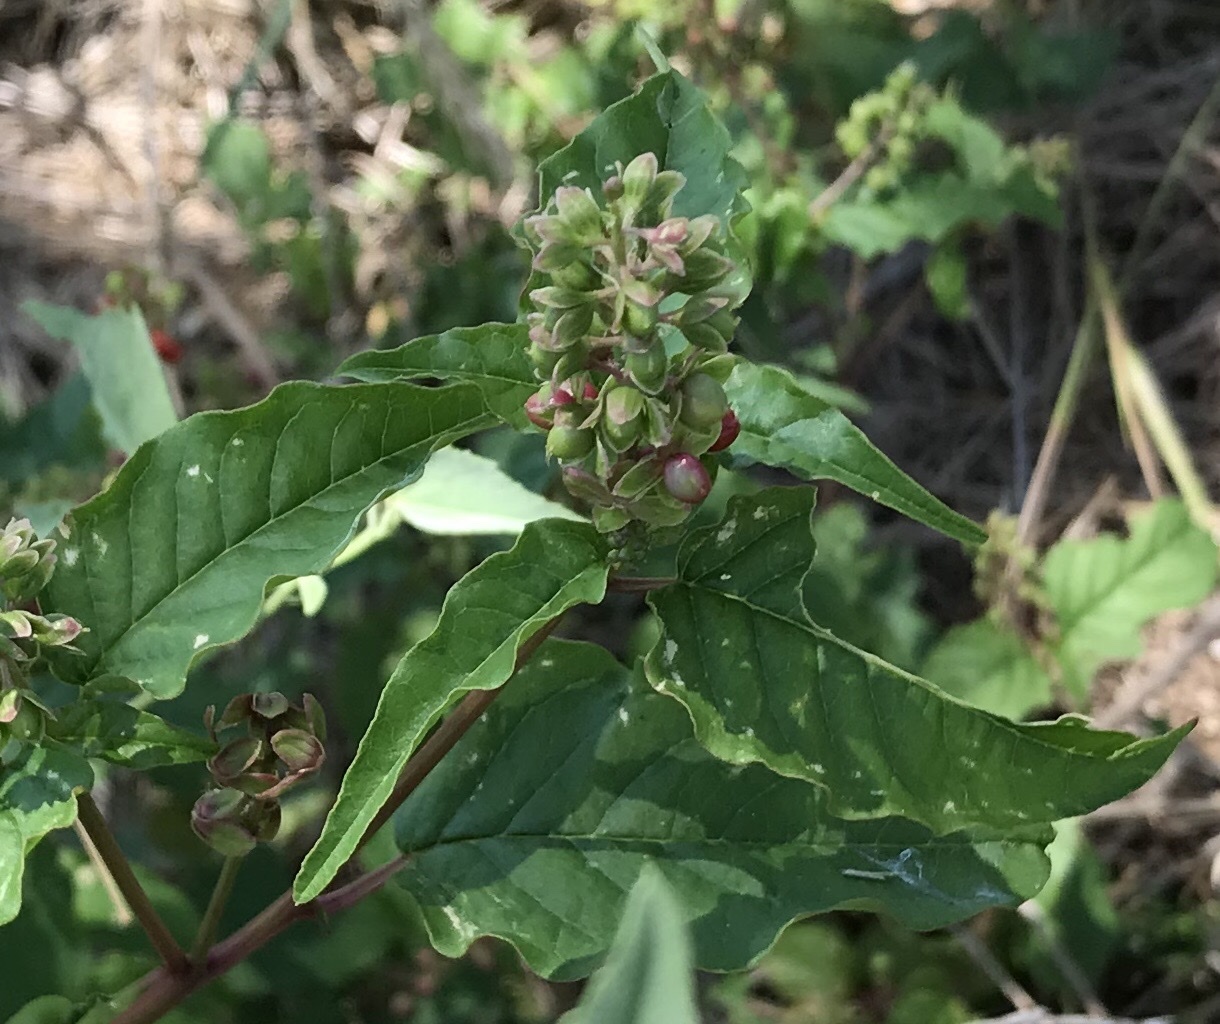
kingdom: Plantae
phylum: Tracheophyta
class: Magnoliopsida
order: Caryophyllales
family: Phytolaccaceae
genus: Rivina
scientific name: Rivina humilis
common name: Rougeplant
